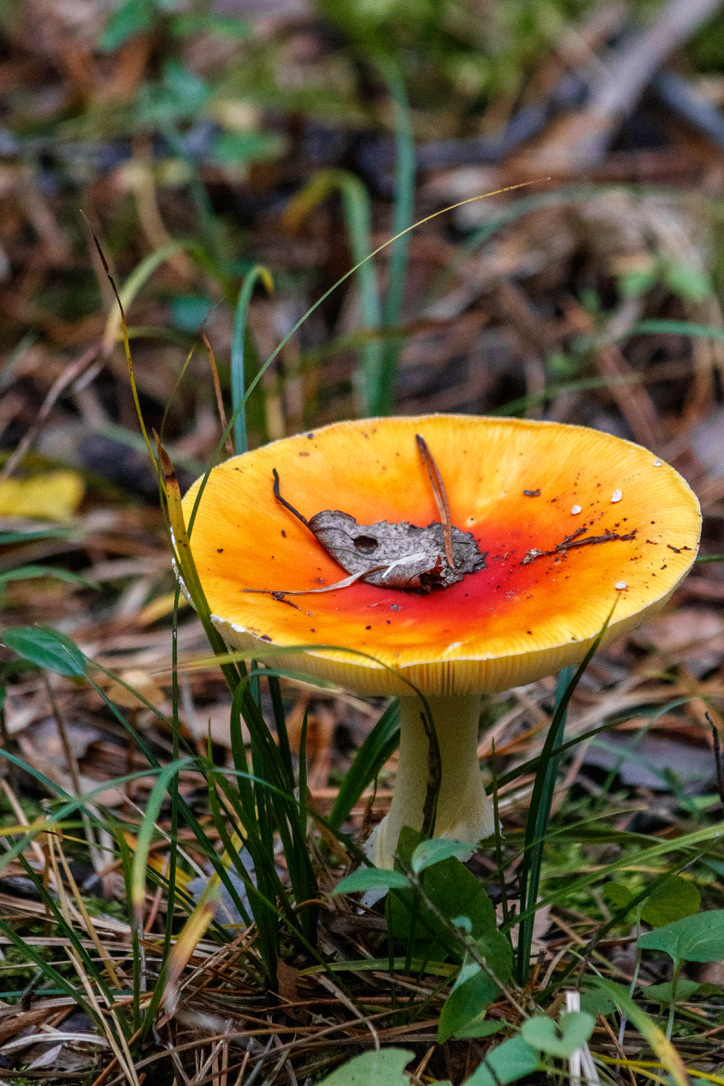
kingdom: Fungi
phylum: Basidiomycota
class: Agaricomycetes
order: Agaricales
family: Amanitaceae
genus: Amanita
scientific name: Amanita muscaria
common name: Fly agaric
